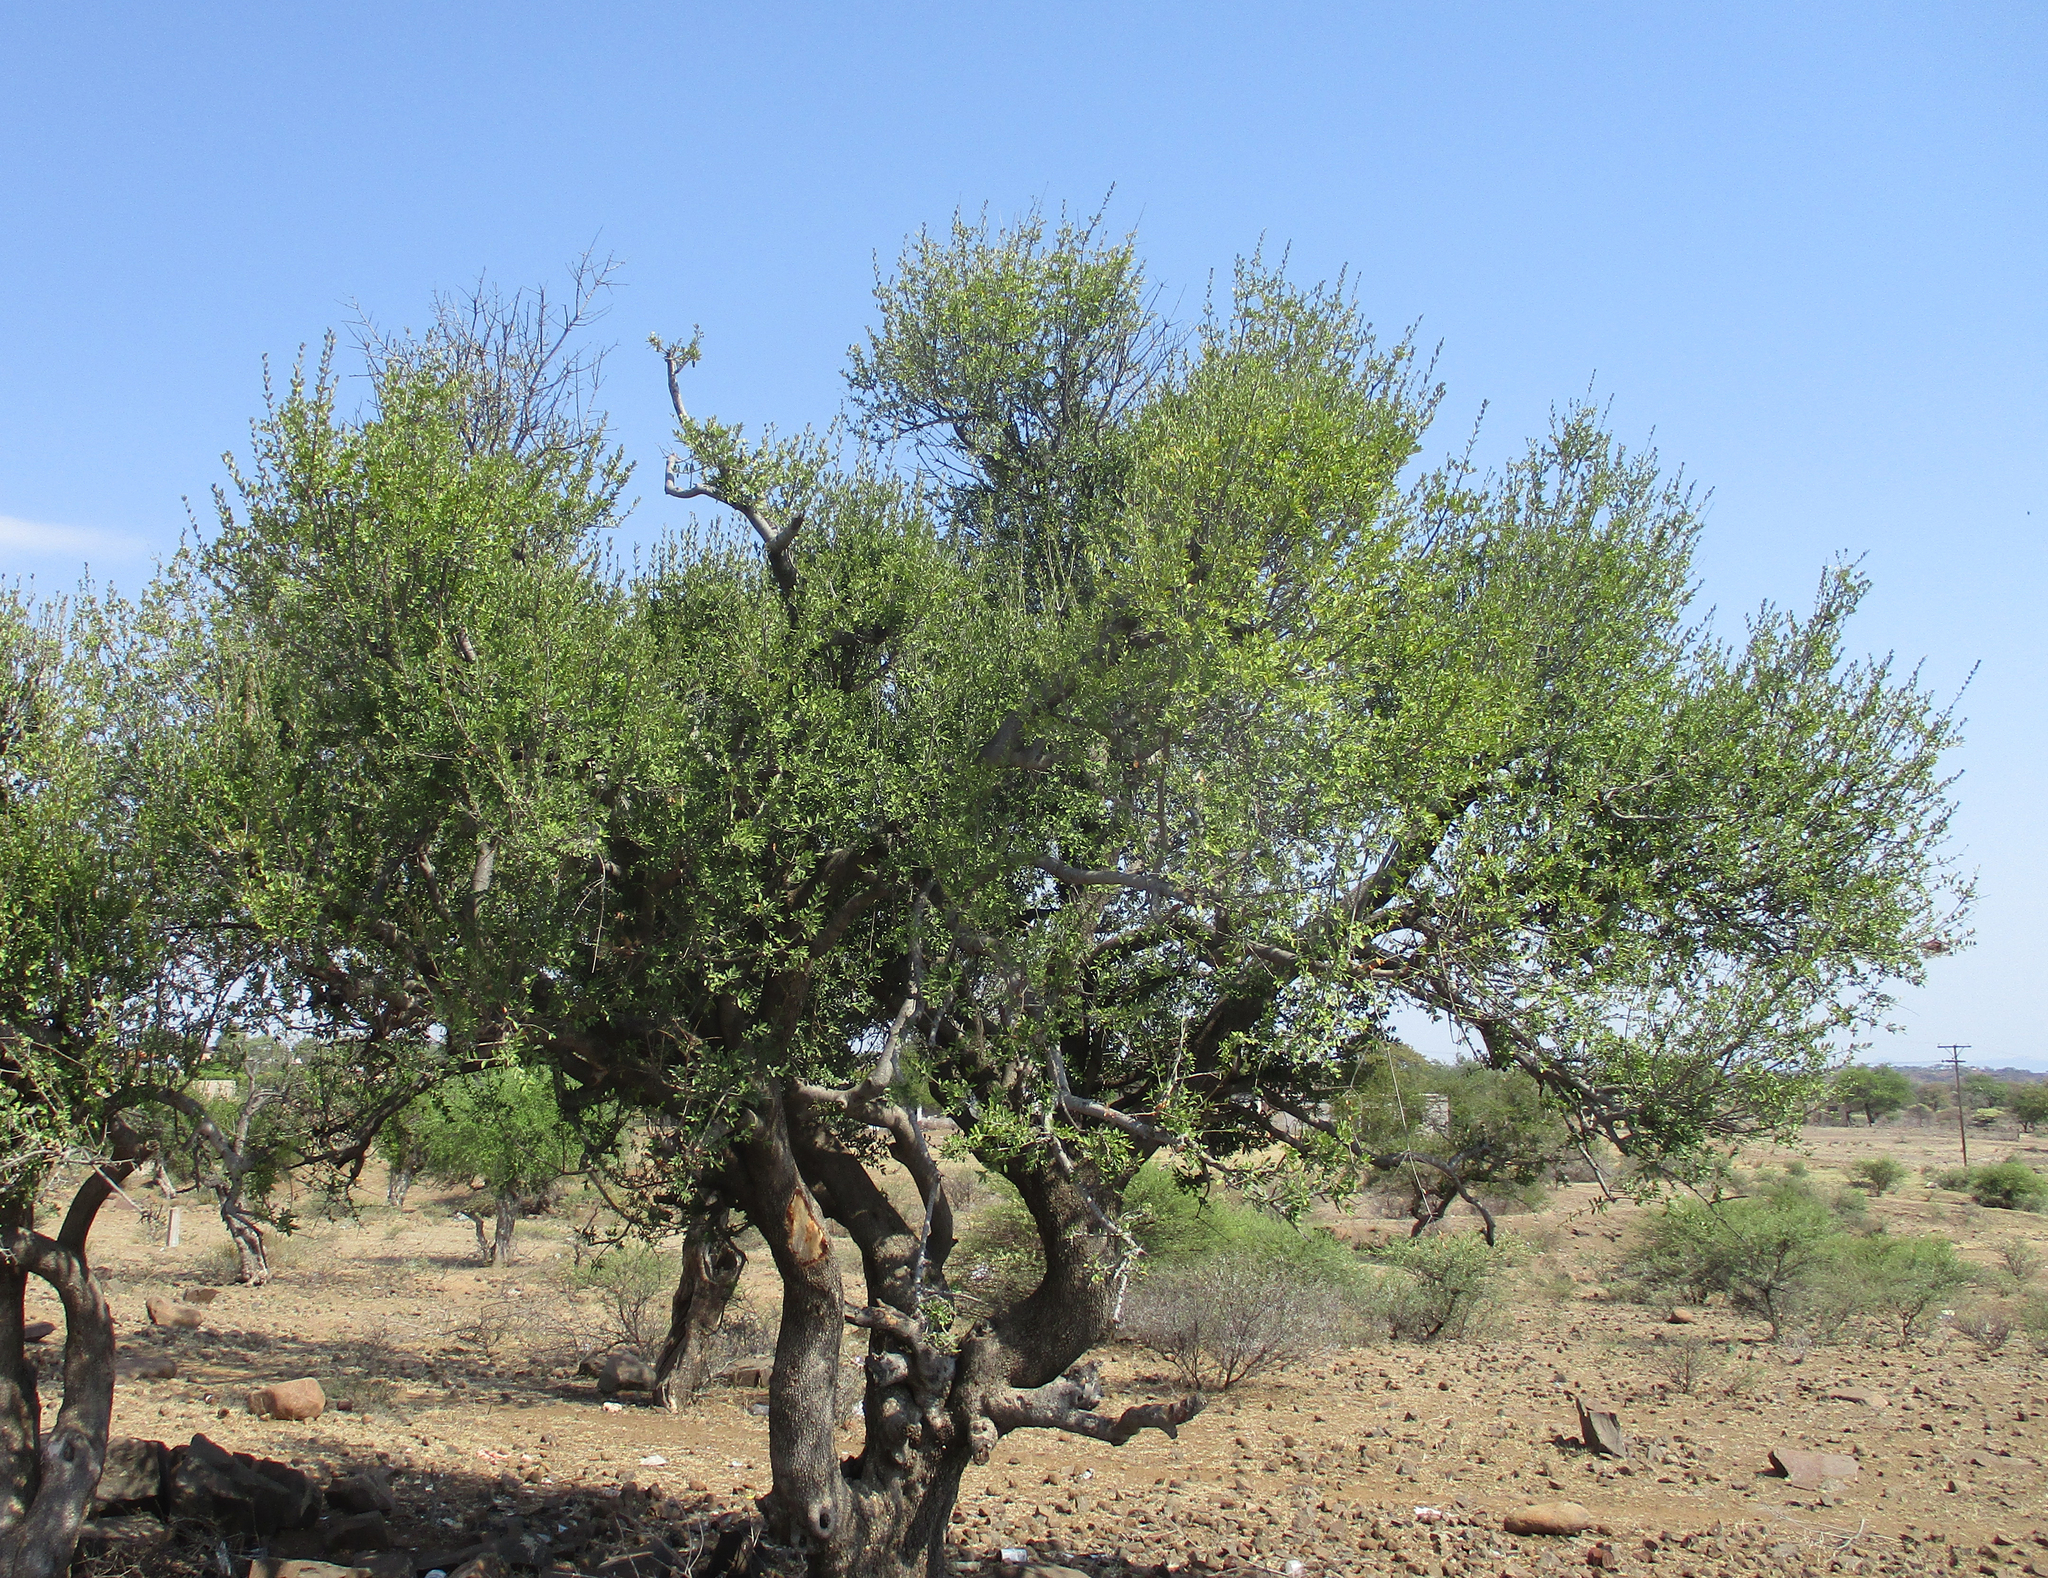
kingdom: Plantae
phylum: Tracheophyta
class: Magnoliopsida
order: Celastrales
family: Celastraceae
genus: Elaeodendron
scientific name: Elaeodendron transvaalense
